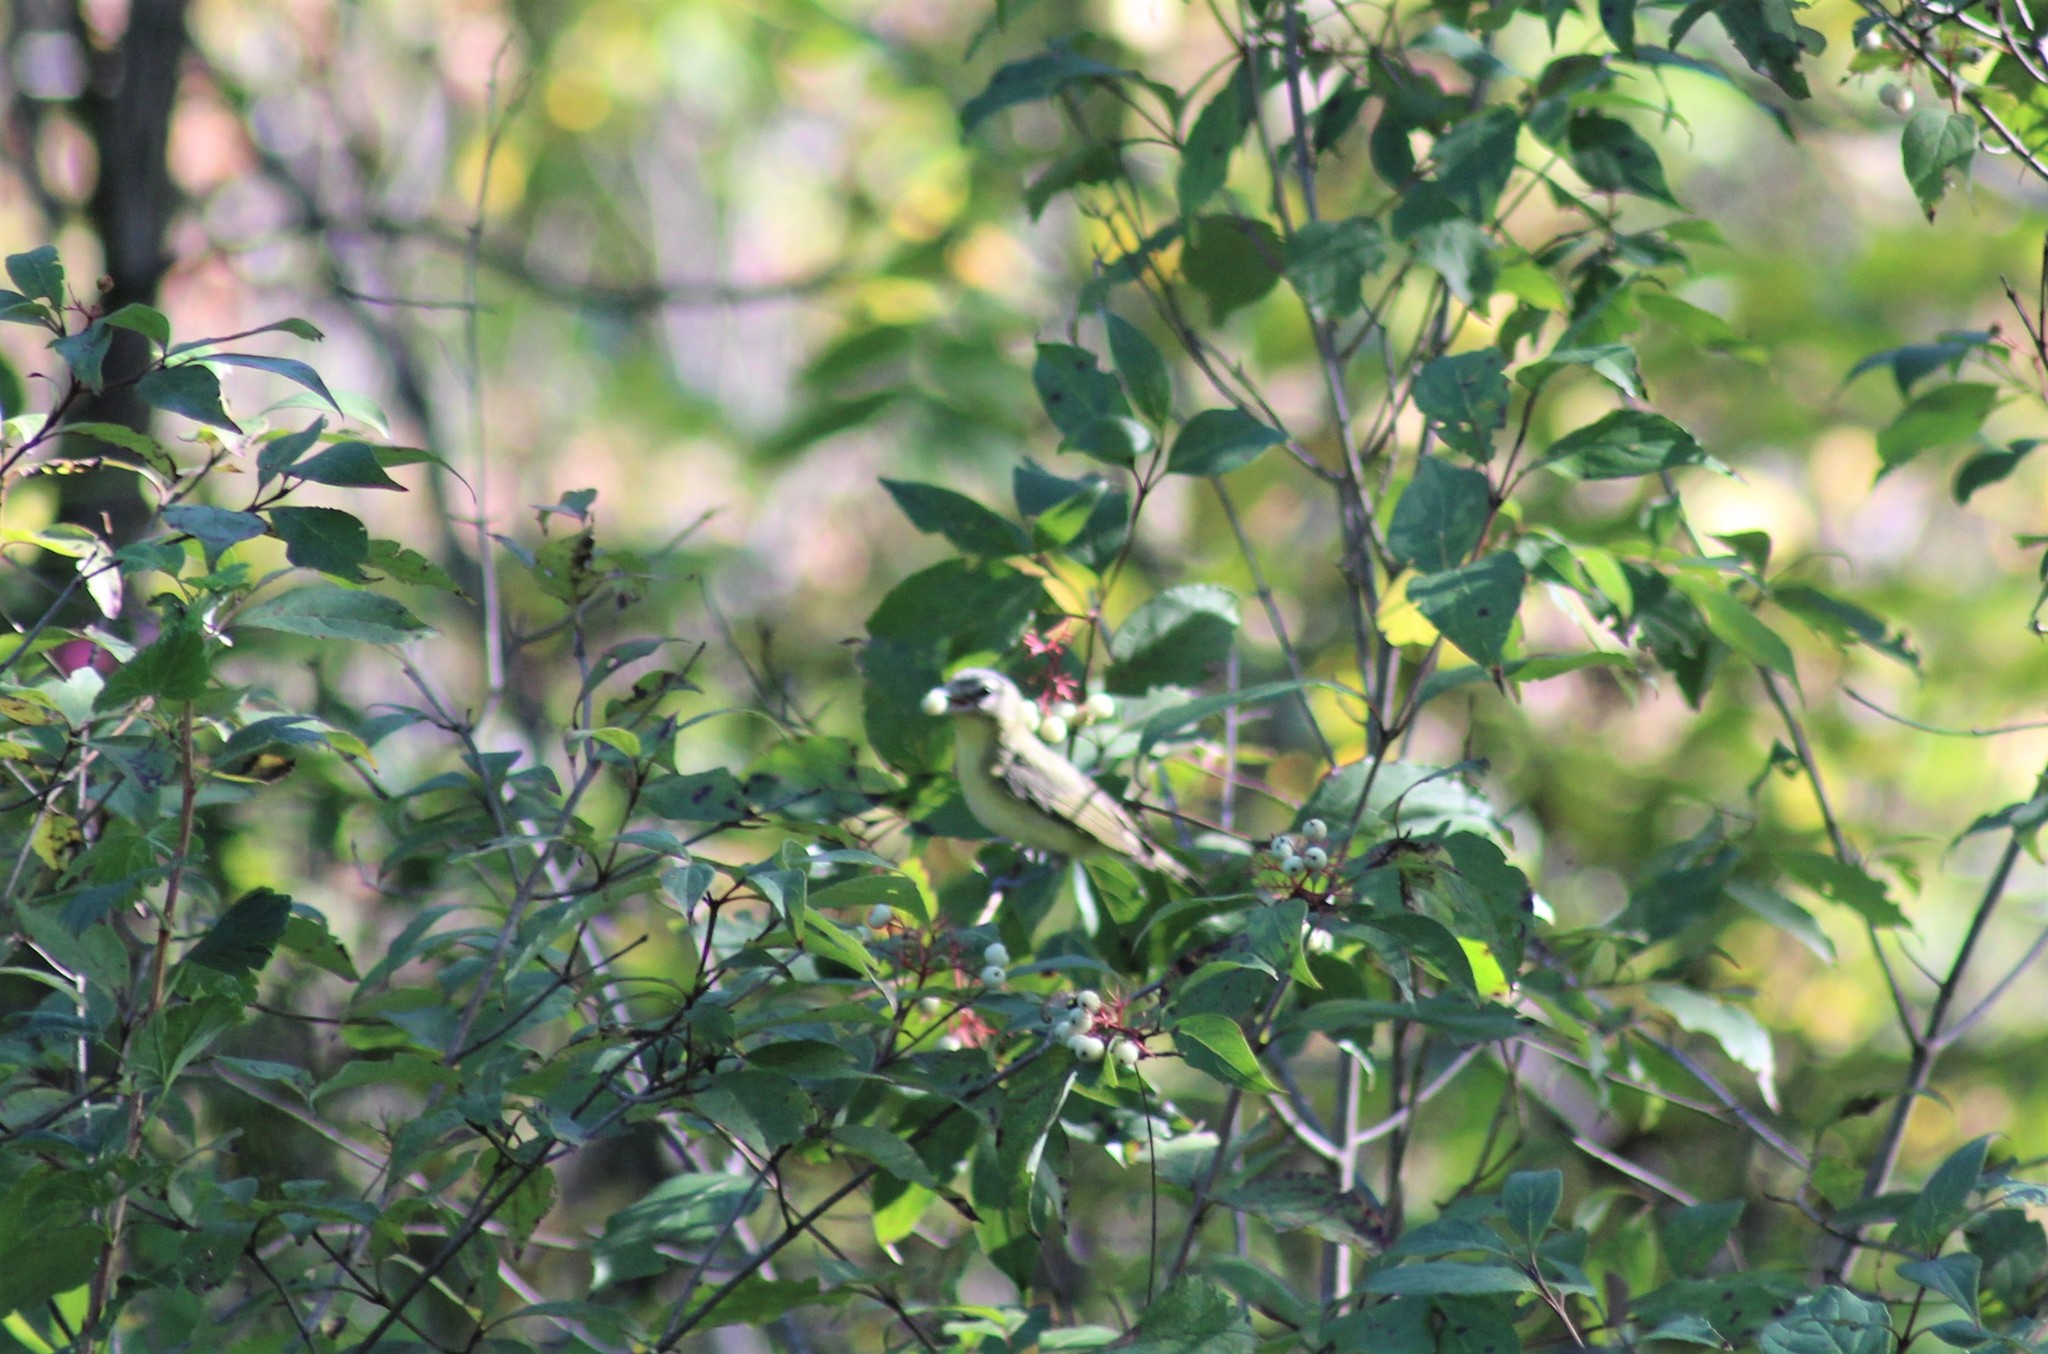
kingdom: Animalia
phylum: Chordata
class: Aves
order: Passeriformes
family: Vireonidae
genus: Vireo
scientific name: Vireo philadelphicus
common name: Philadelphia vireo
